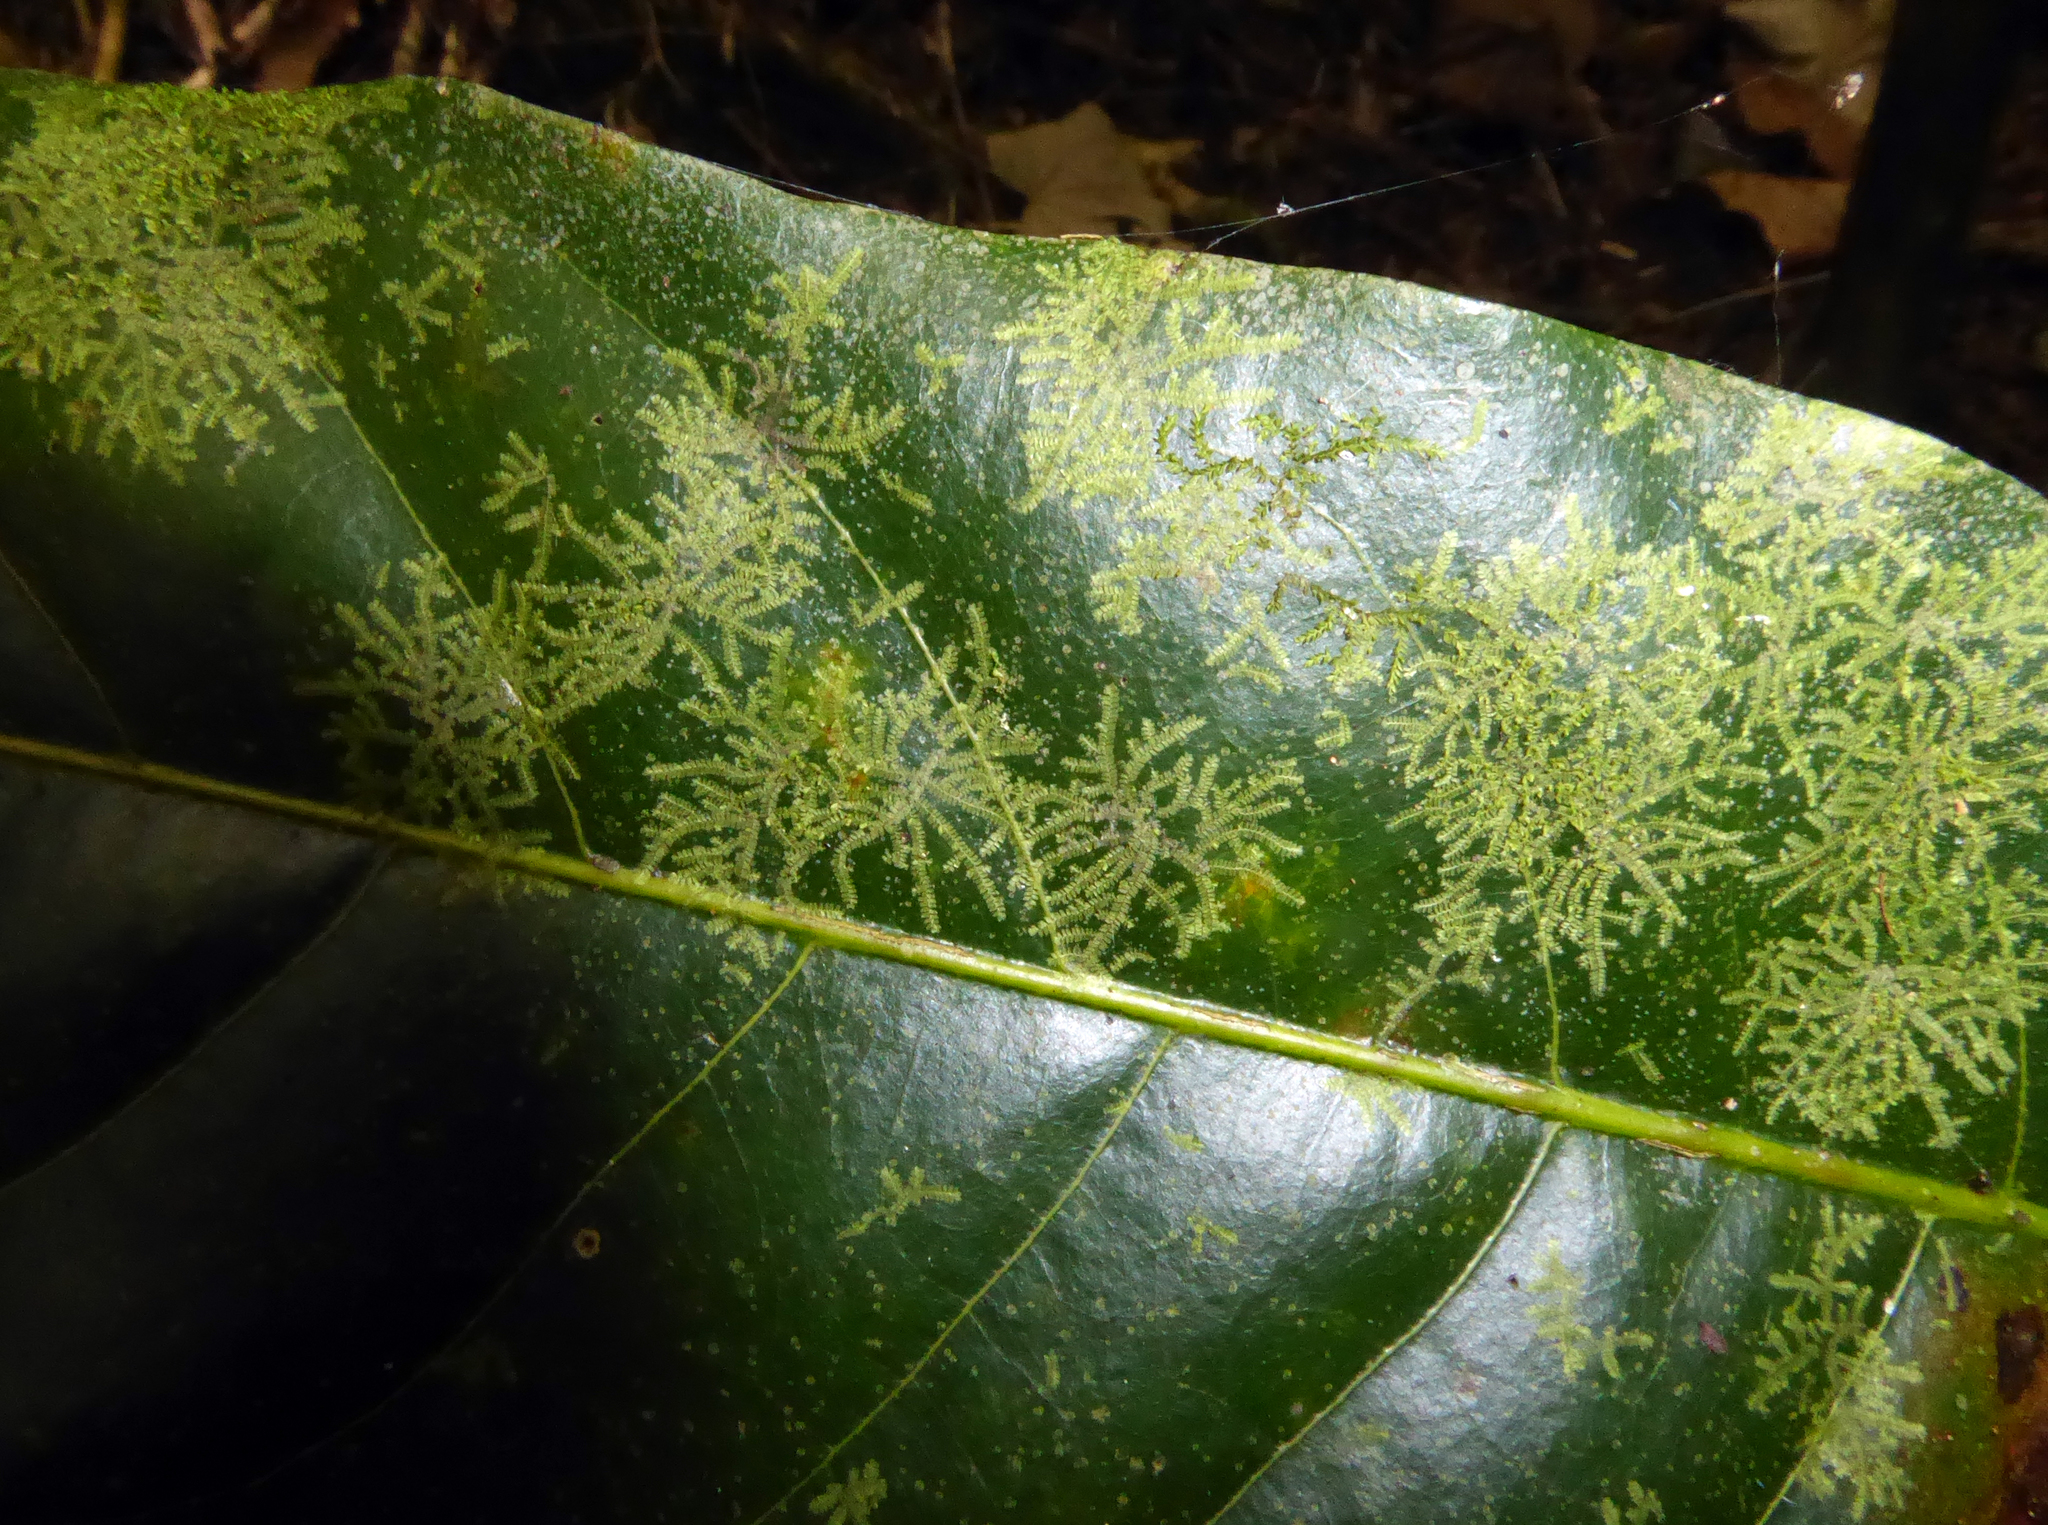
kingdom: Plantae
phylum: Marchantiophyta
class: Jungermanniopsida
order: Porellales
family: Lejeuneaceae
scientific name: Lejeuneaceae
